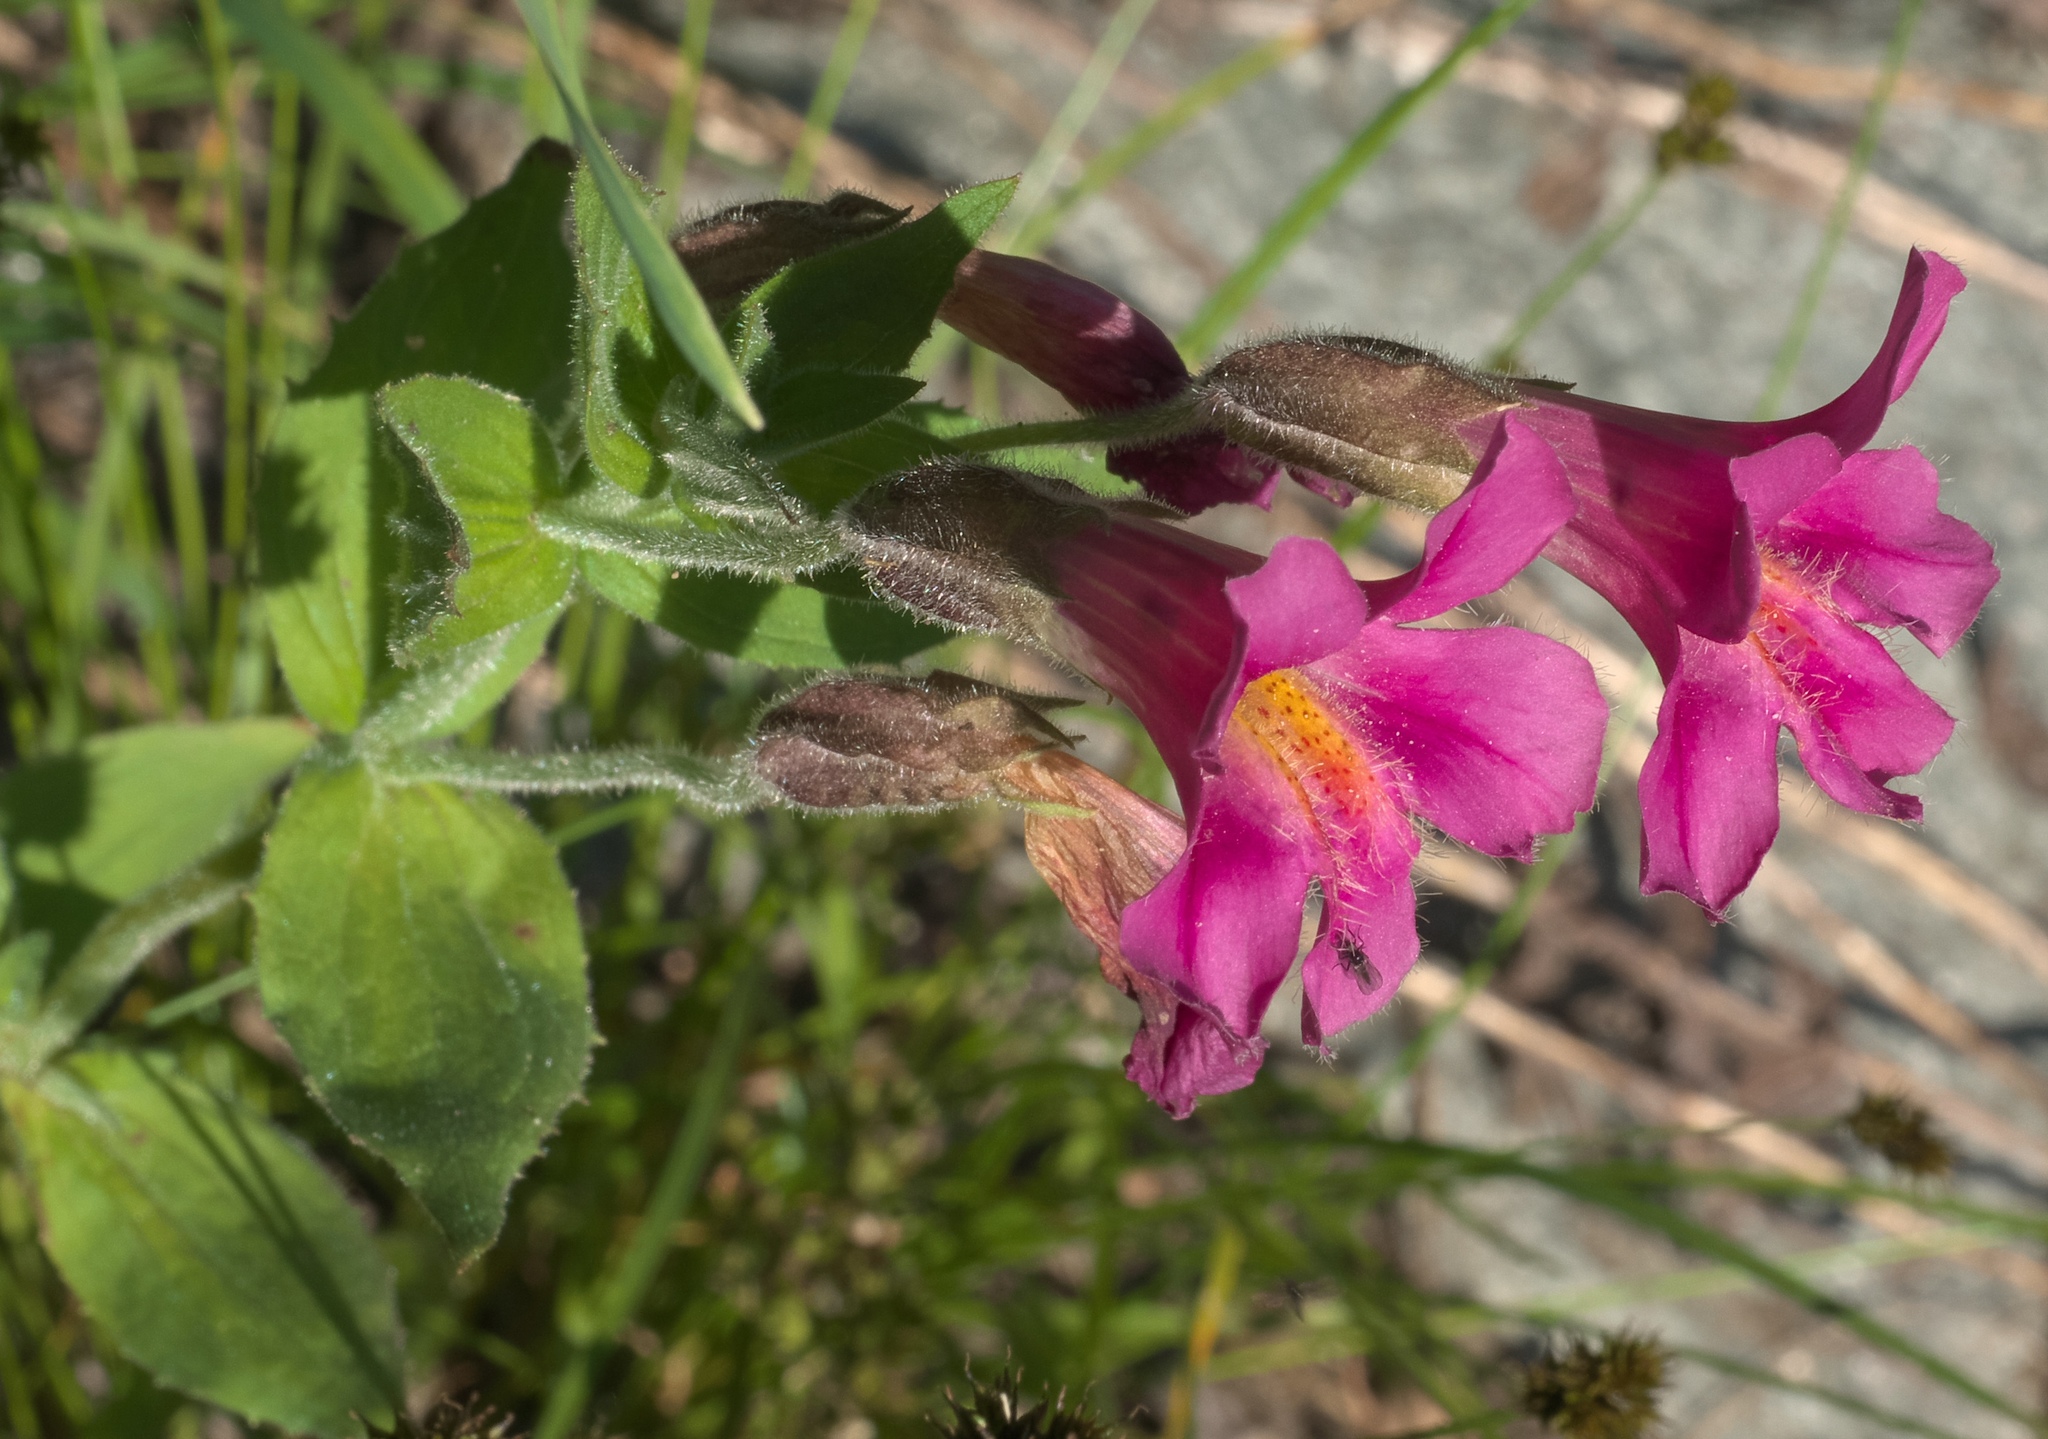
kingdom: Plantae
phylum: Tracheophyta
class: Magnoliopsida
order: Lamiales
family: Phrymaceae
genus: Erythranthe
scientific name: Erythranthe lewisii
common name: Lewis's monkey-flower
